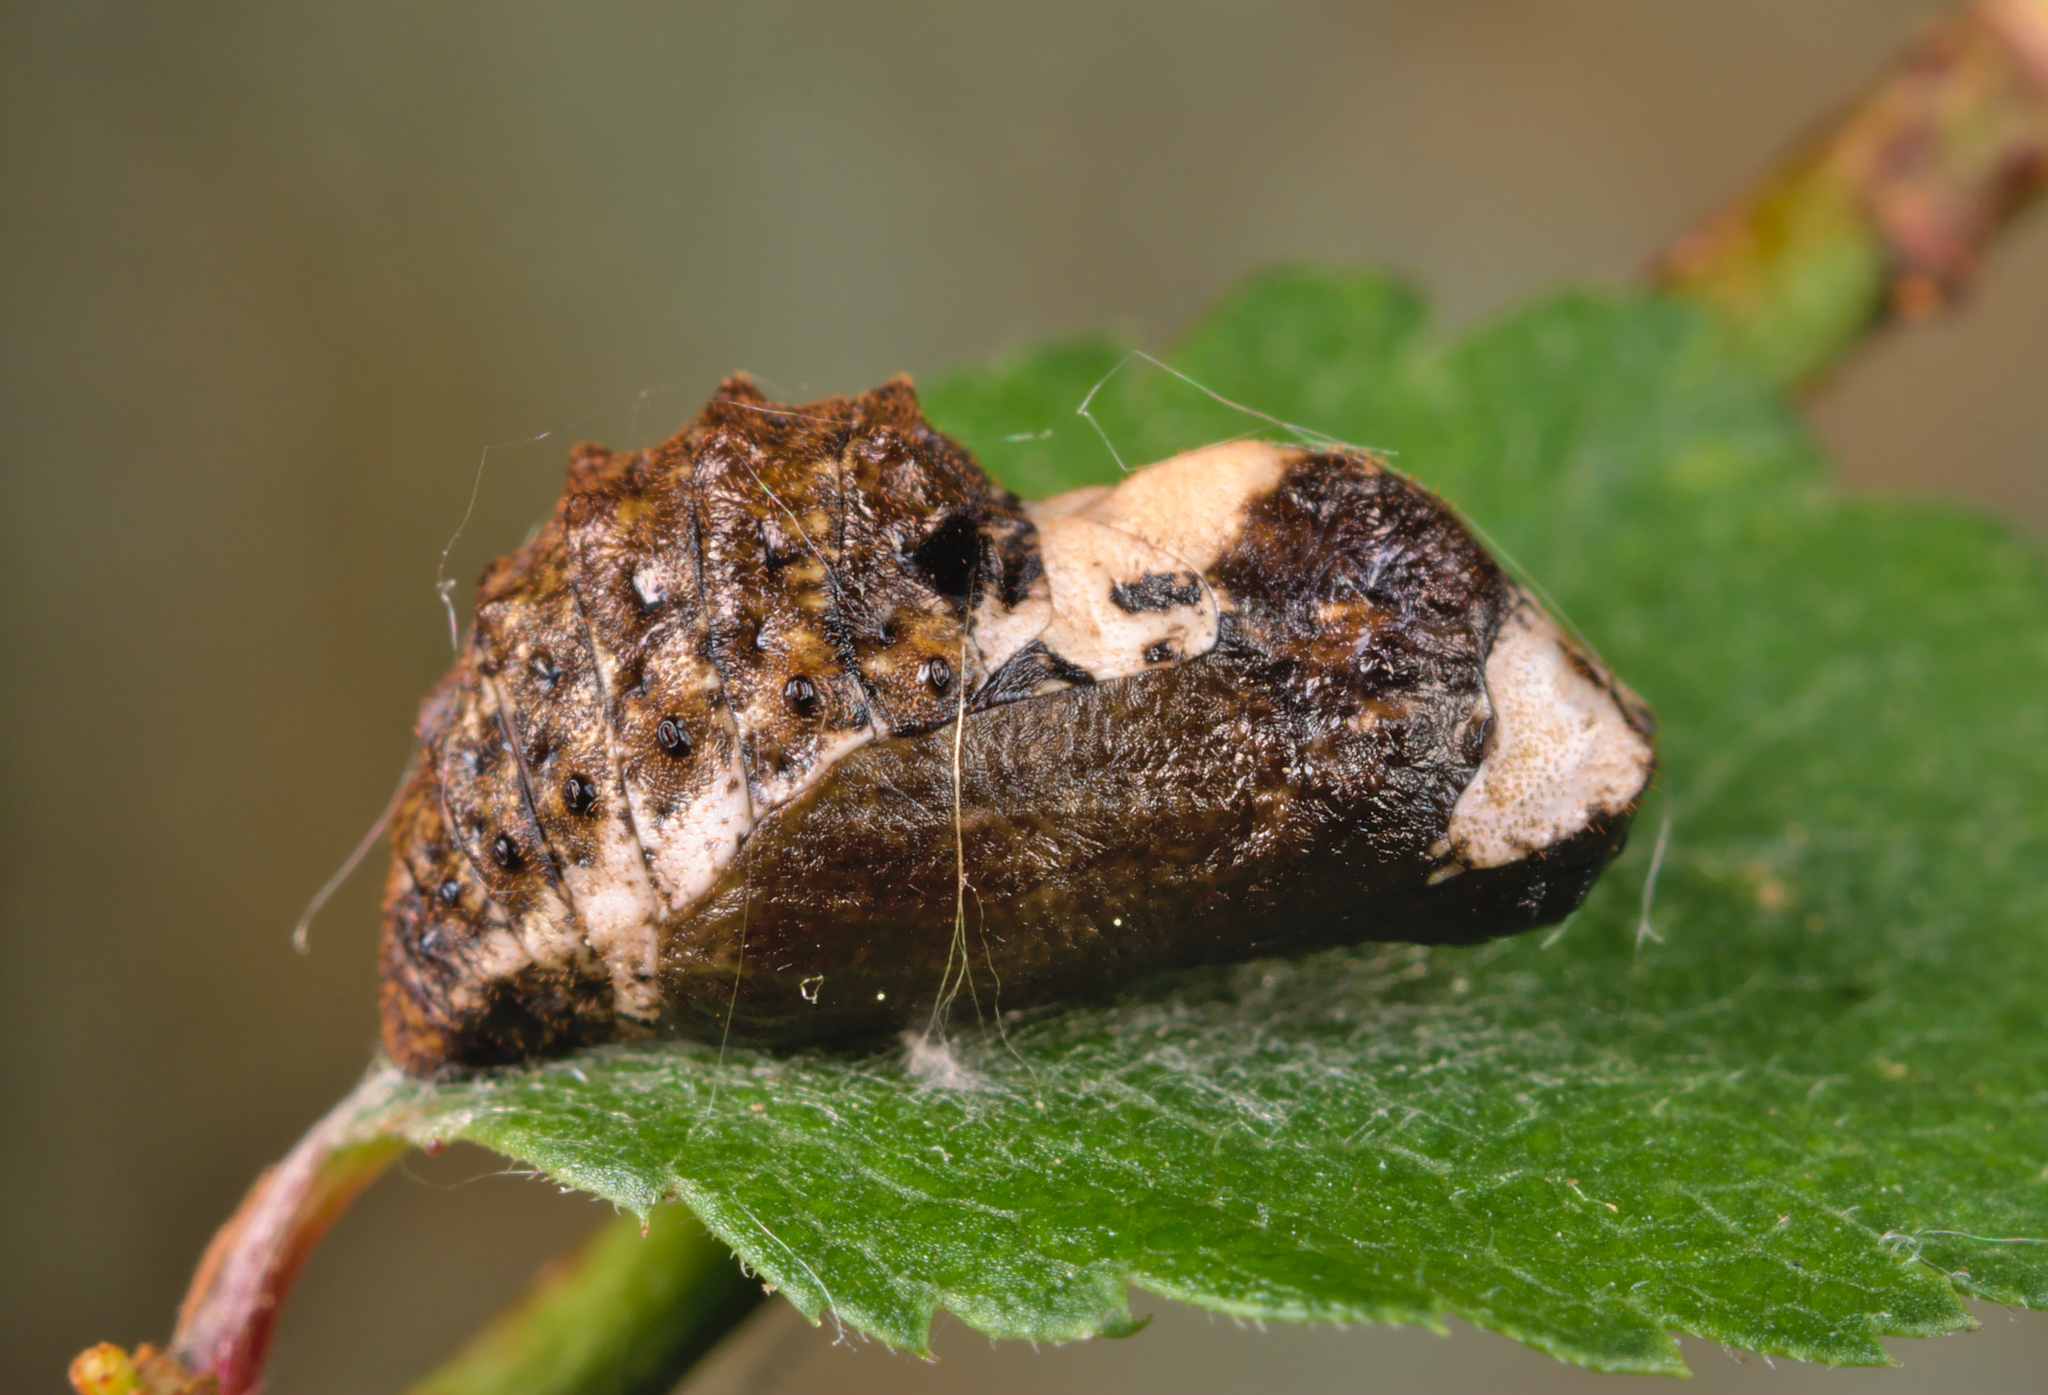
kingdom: Animalia
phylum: Arthropoda
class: Insecta
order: Lepidoptera
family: Lycaenidae
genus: Fixsenia
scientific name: Fixsenia pruni
